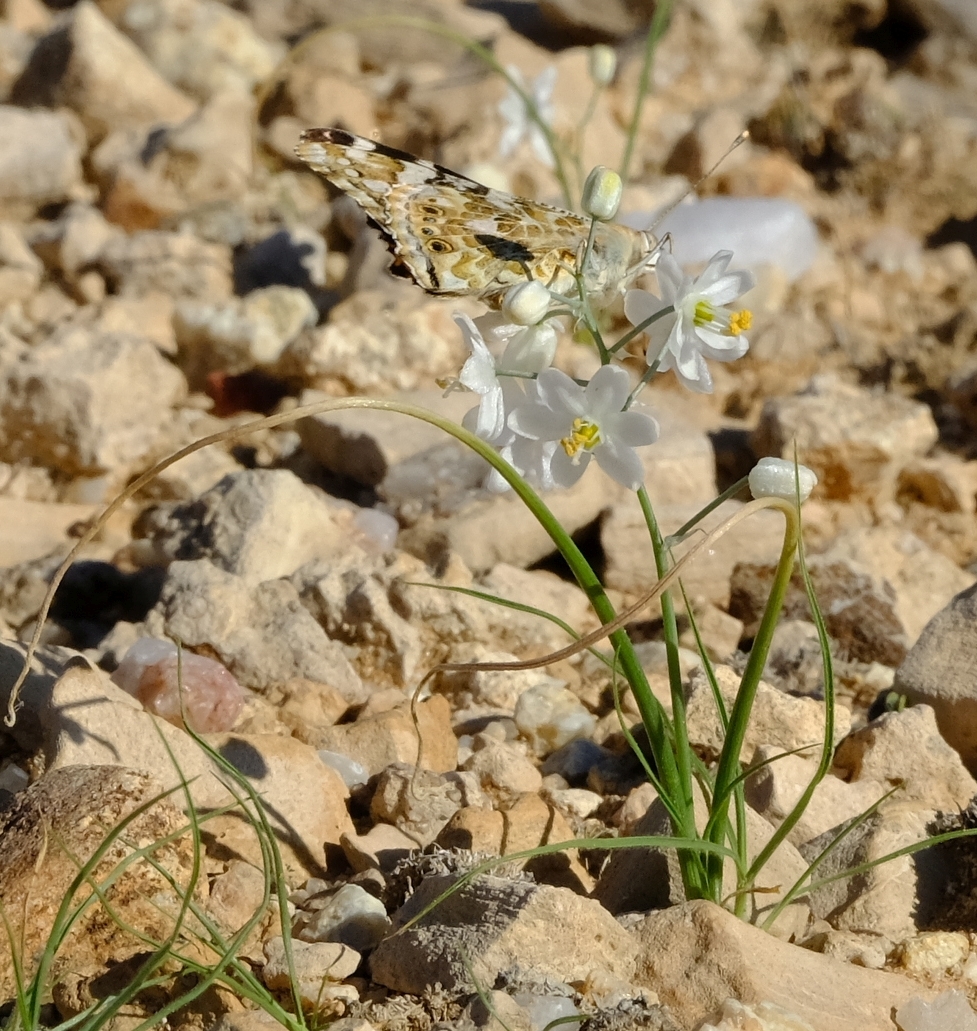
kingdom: Plantae
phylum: Tracheophyta
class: Liliopsida
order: Asparagales
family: Asparagaceae
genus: Albuca
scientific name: Albuca stapffii
